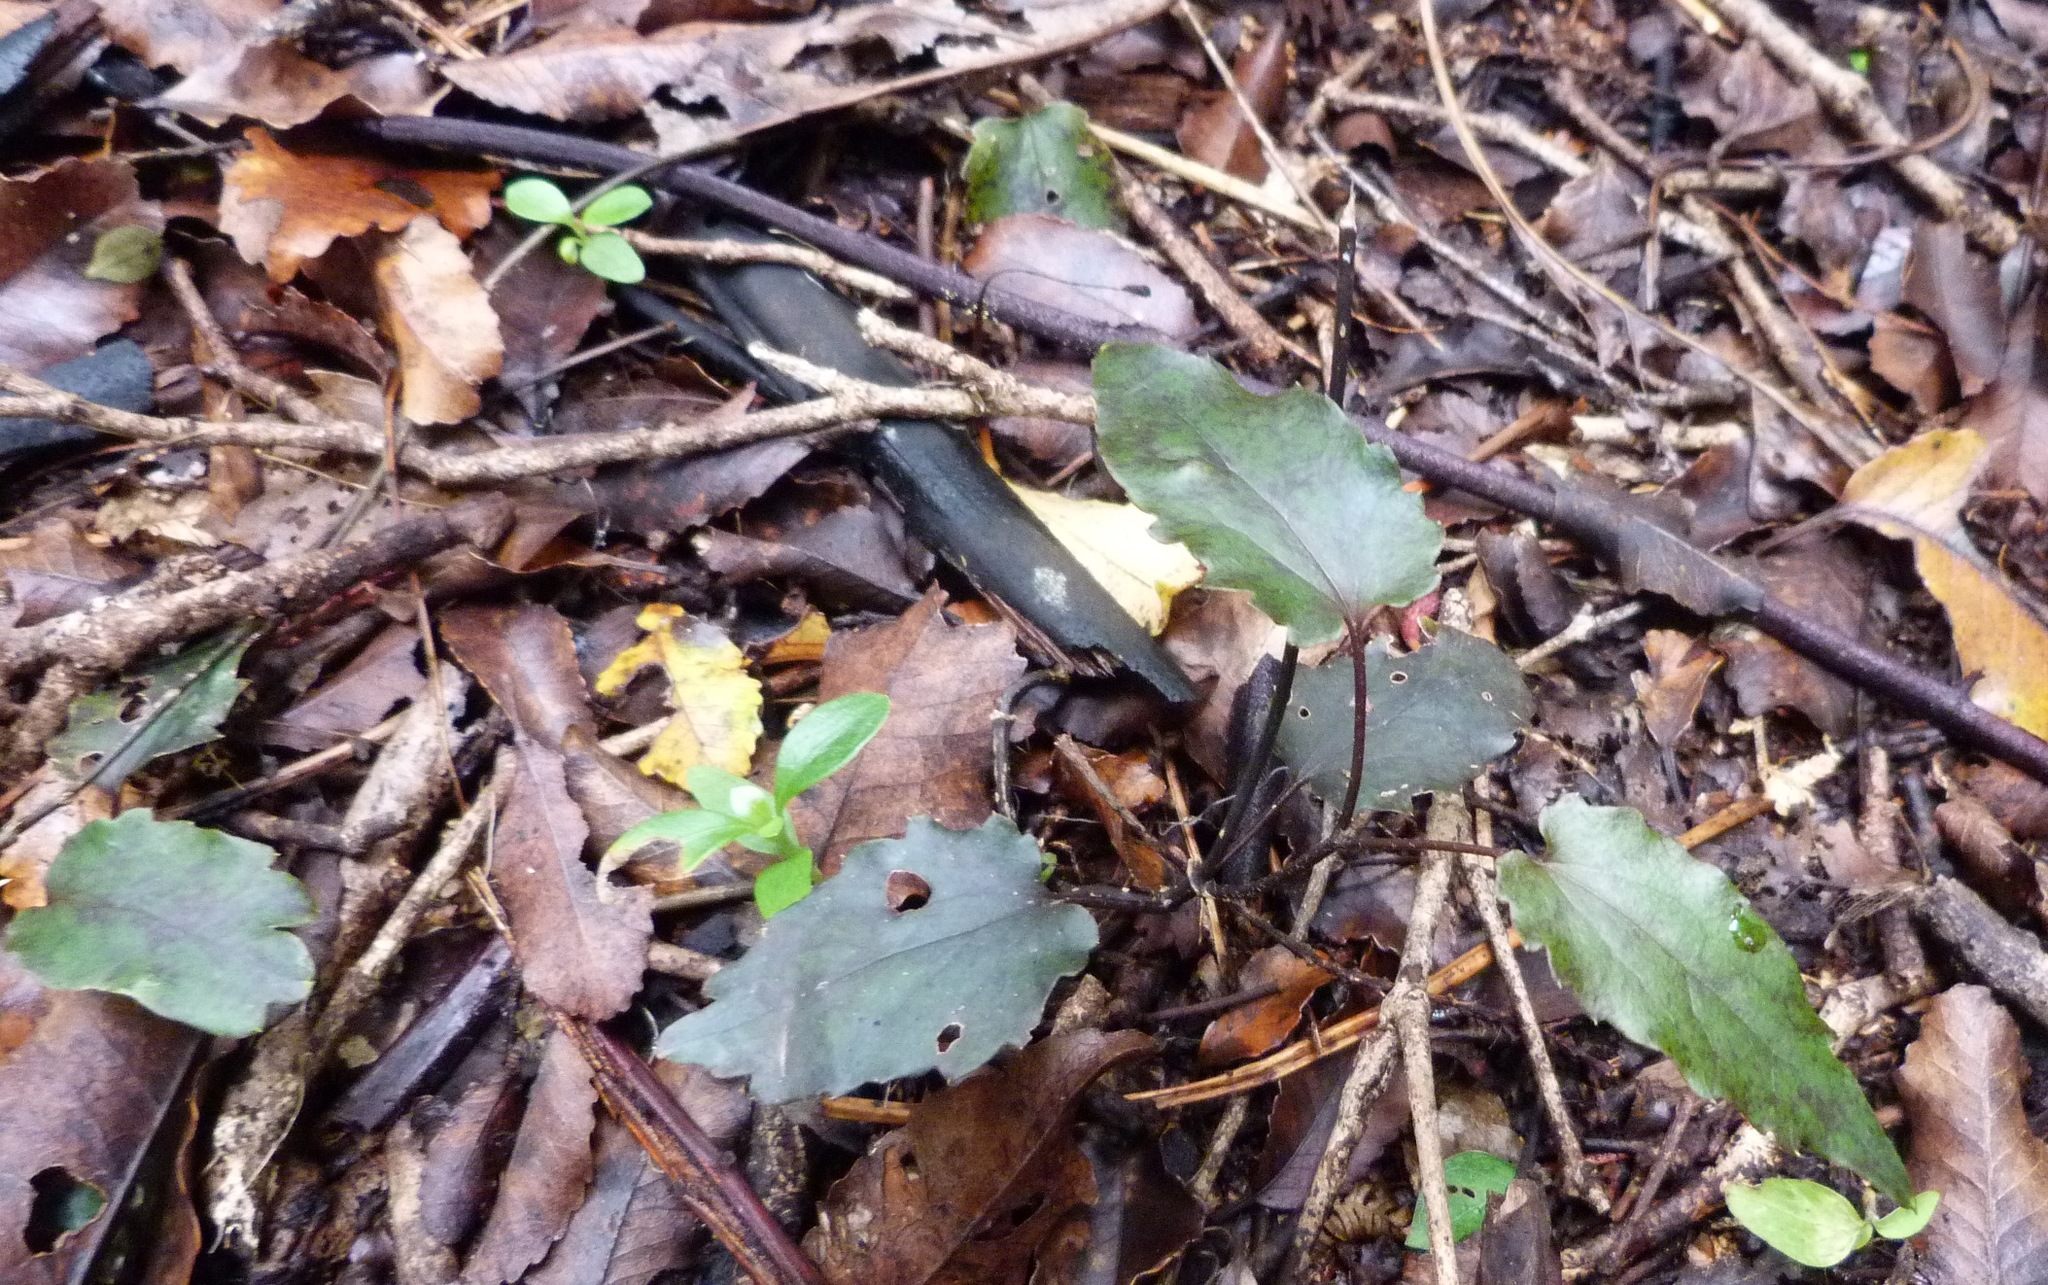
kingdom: Plantae
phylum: Tracheophyta
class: Magnoliopsida
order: Ranunculales
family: Ranunculaceae
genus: Clematis
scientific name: Clematis paniculata
